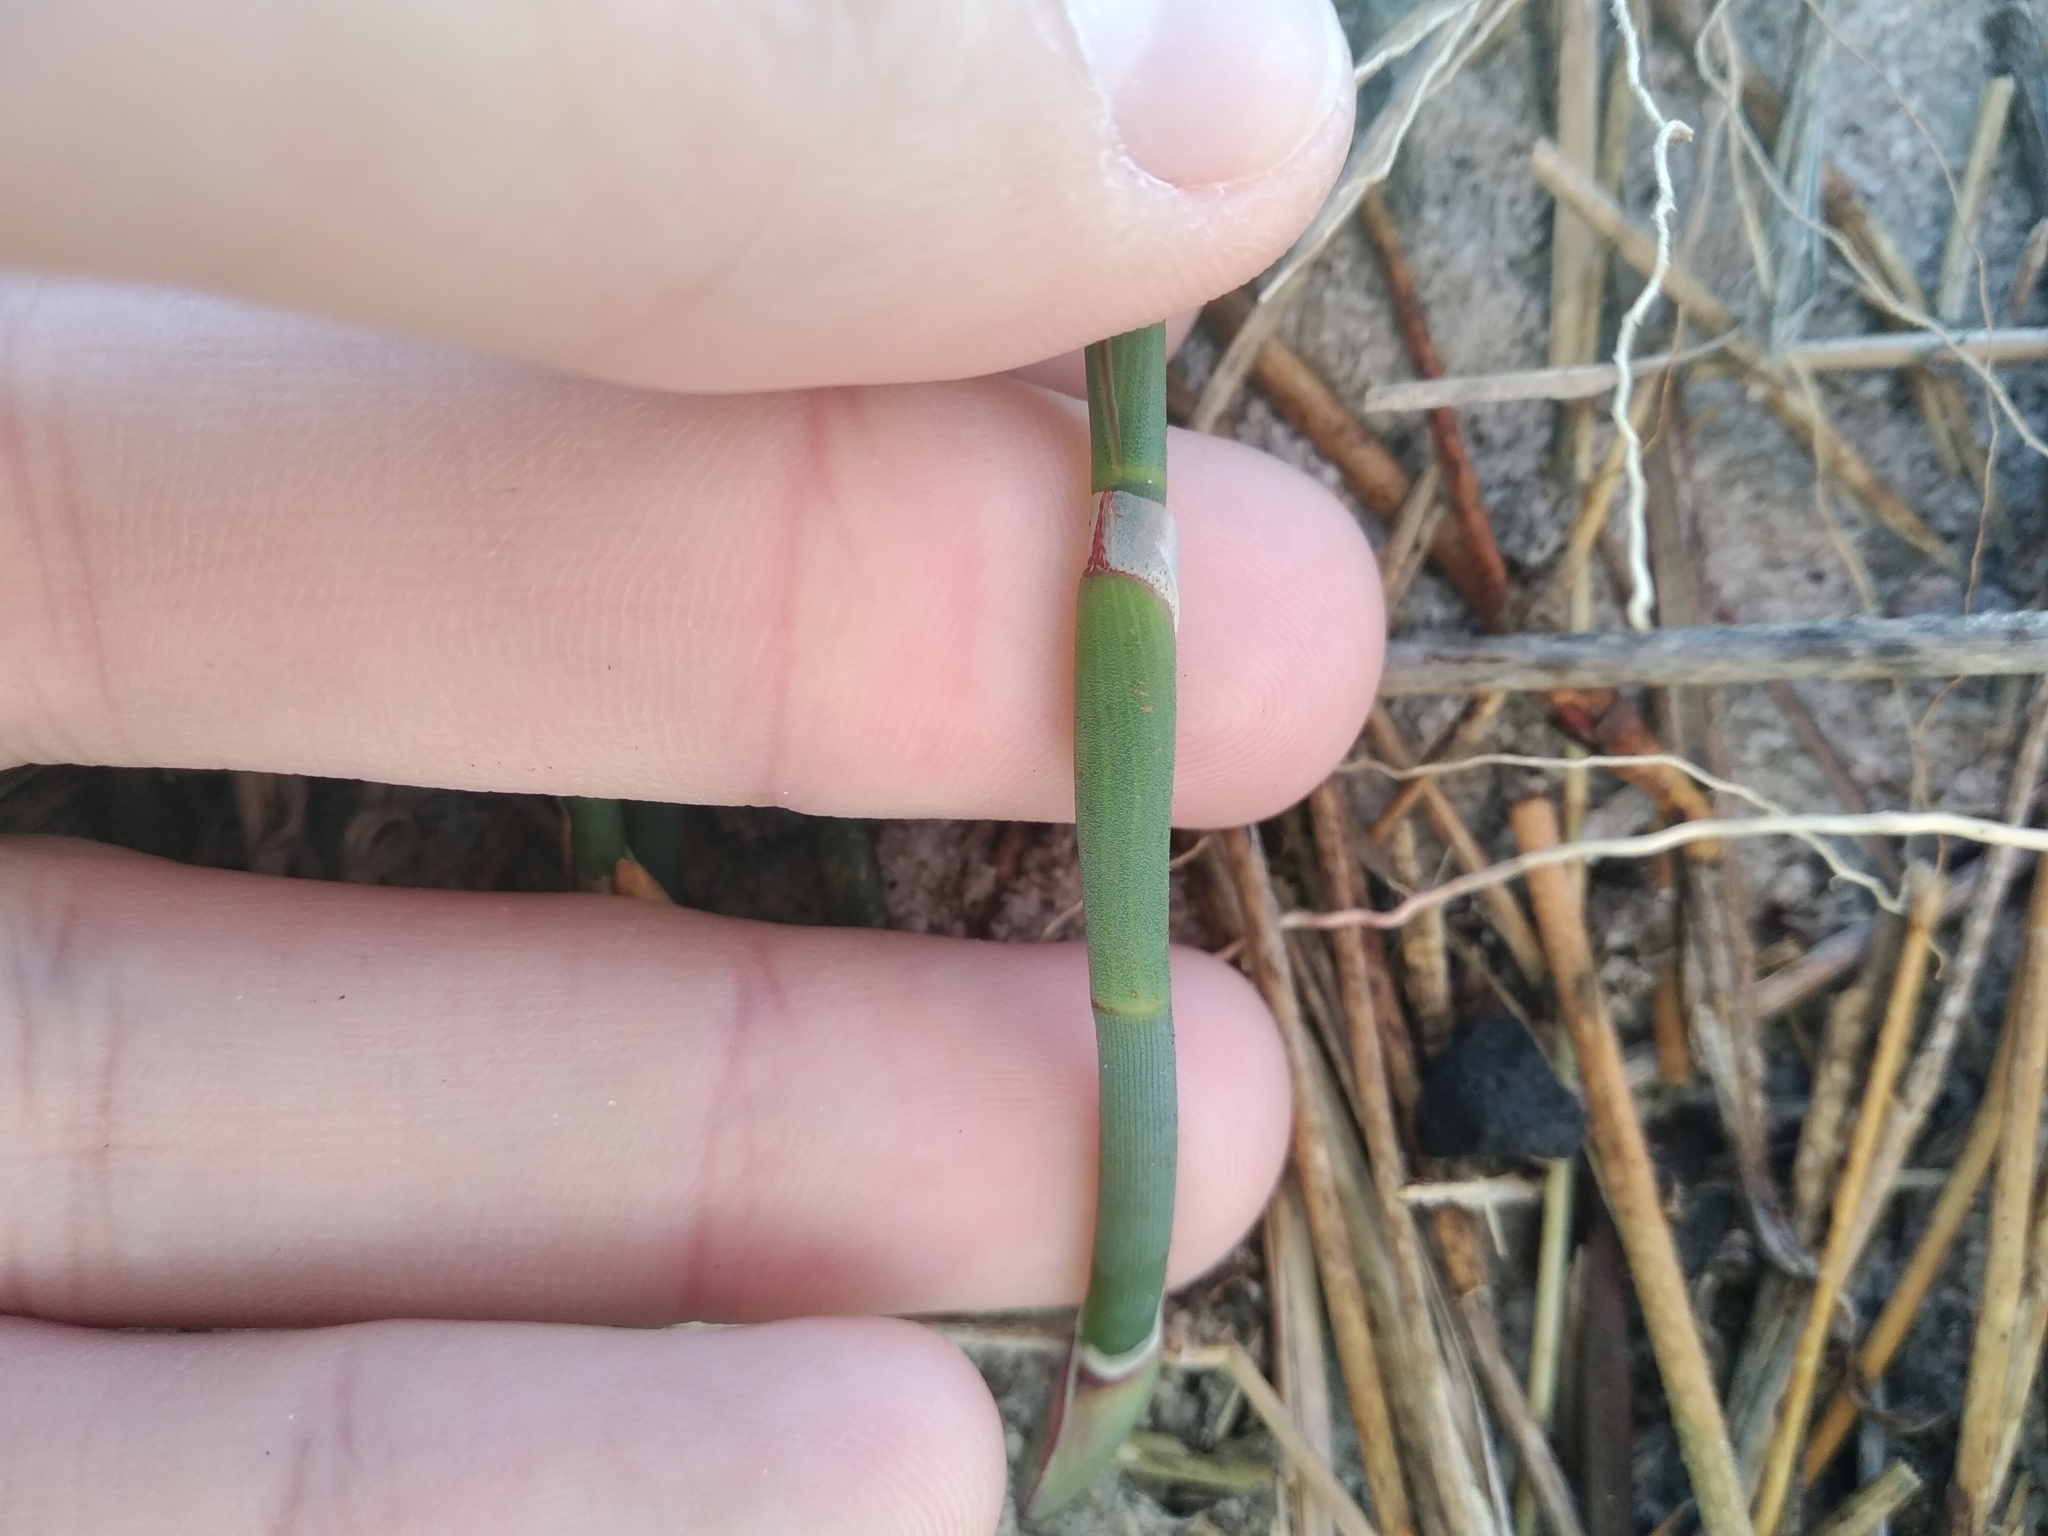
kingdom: Plantae
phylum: Tracheophyta
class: Liliopsida
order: Poales
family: Restionaceae
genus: Willdenowia
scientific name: Willdenowia incurvata
